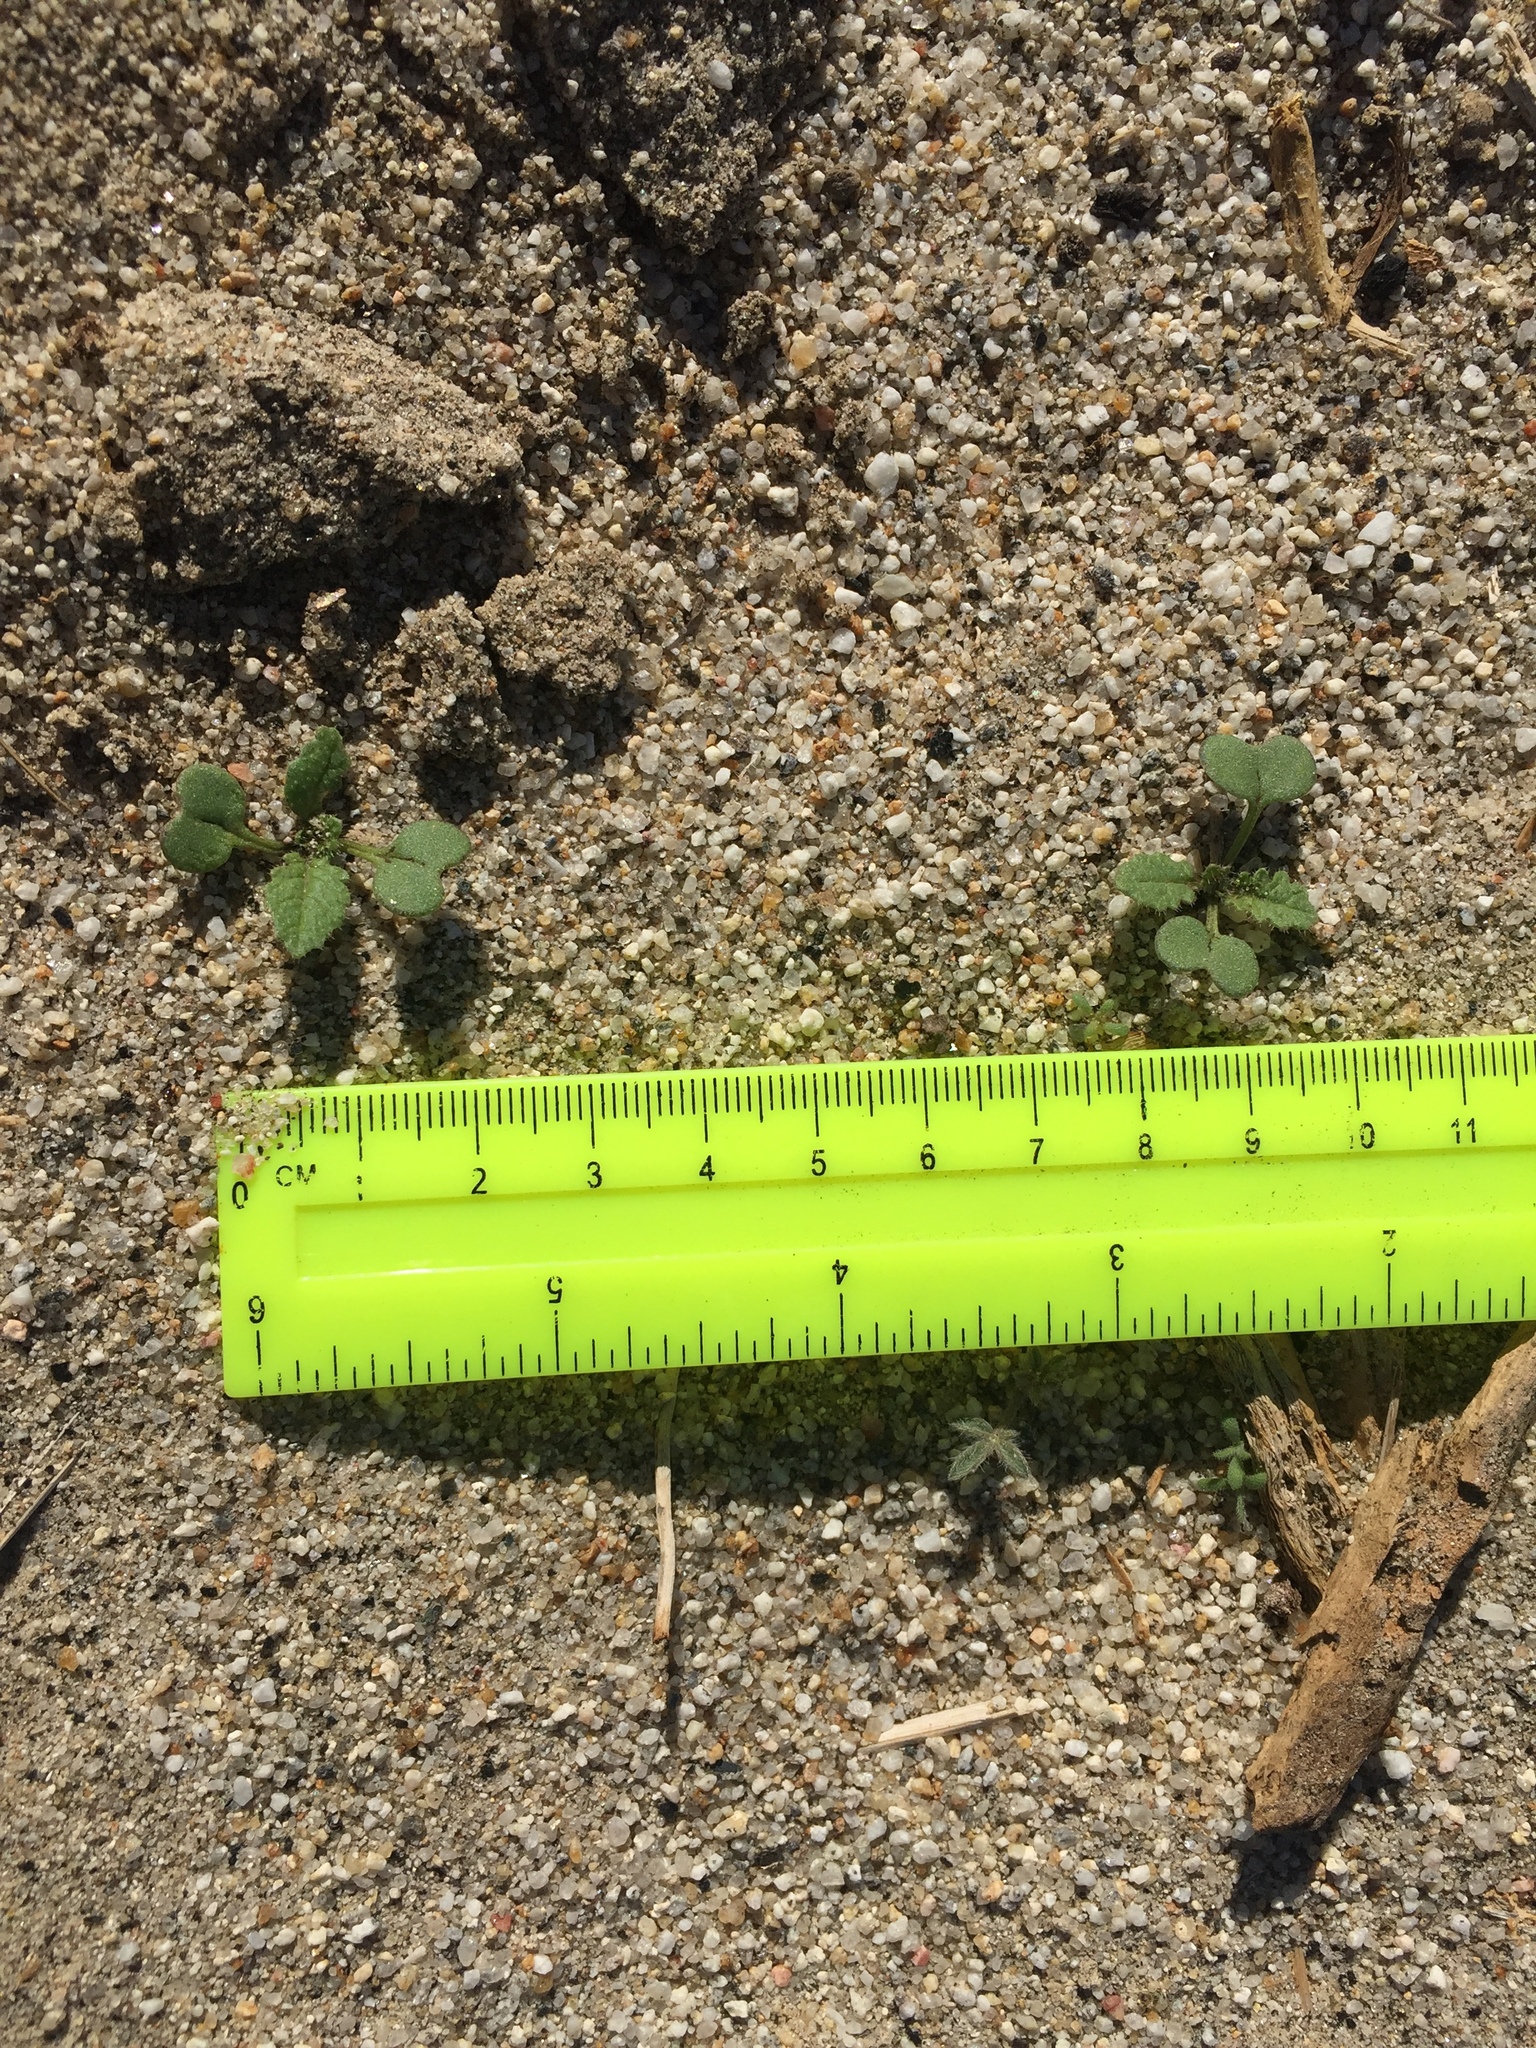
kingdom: Plantae
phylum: Tracheophyta
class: Magnoliopsida
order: Brassicales
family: Brassicaceae
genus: Brassica
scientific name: Brassica tournefortii
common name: Pale cabbage
